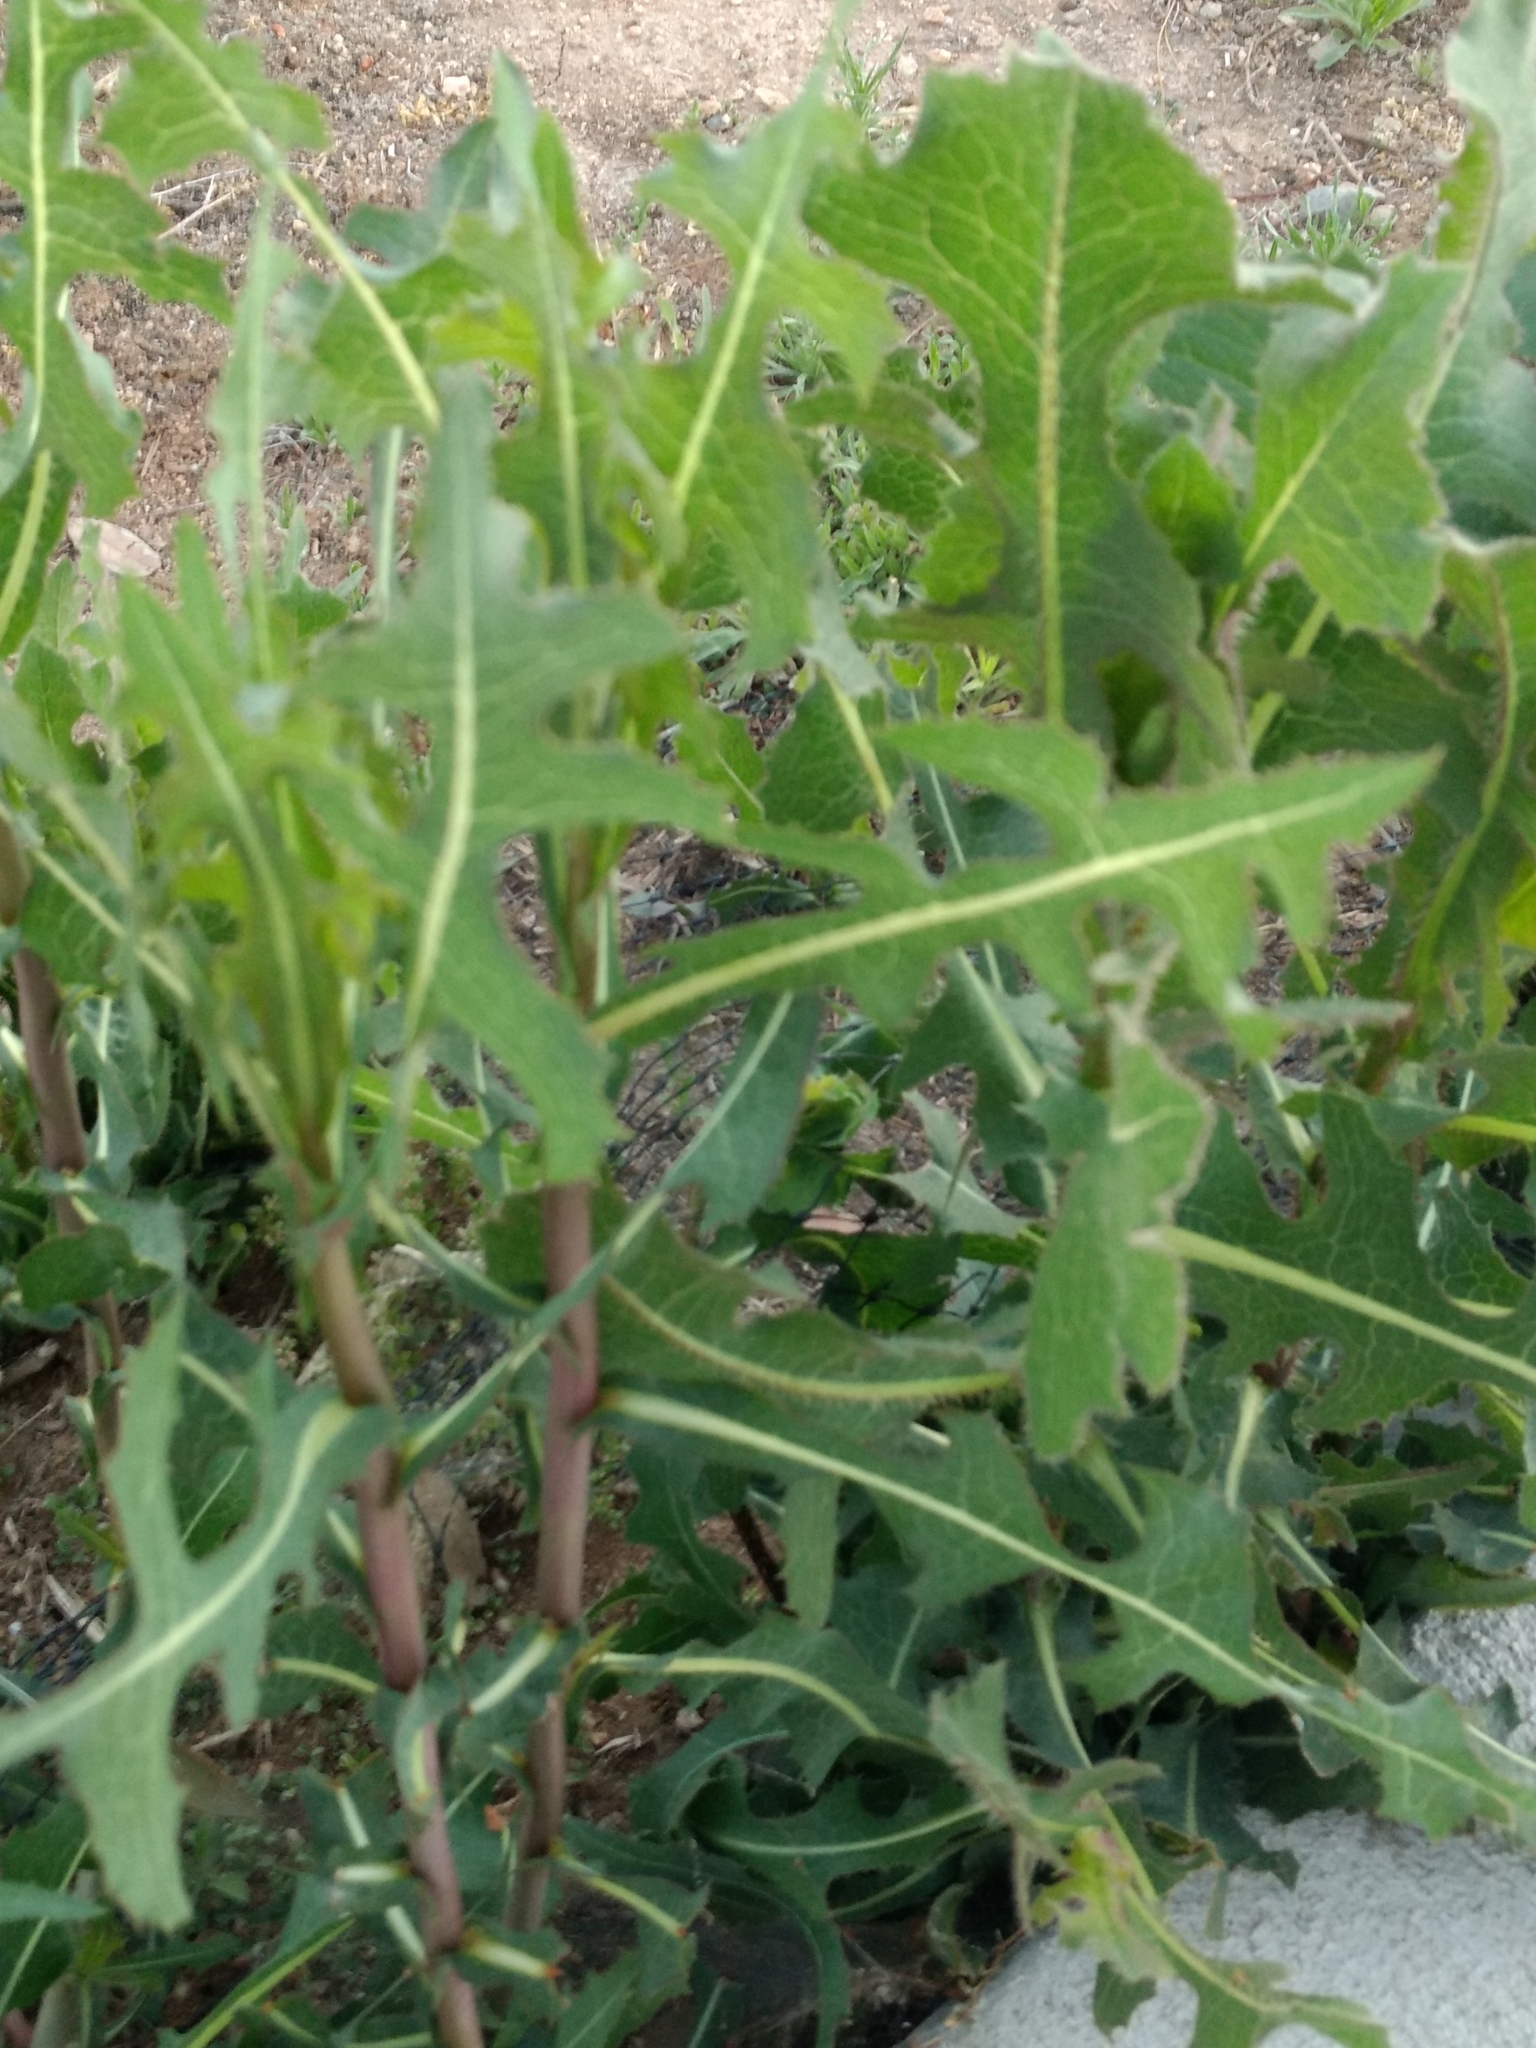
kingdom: Plantae
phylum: Tracheophyta
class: Magnoliopsida
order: Asterales
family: Asteraceae
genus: Lactuca
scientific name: Lactuca serriola
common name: Prickly lettuce
